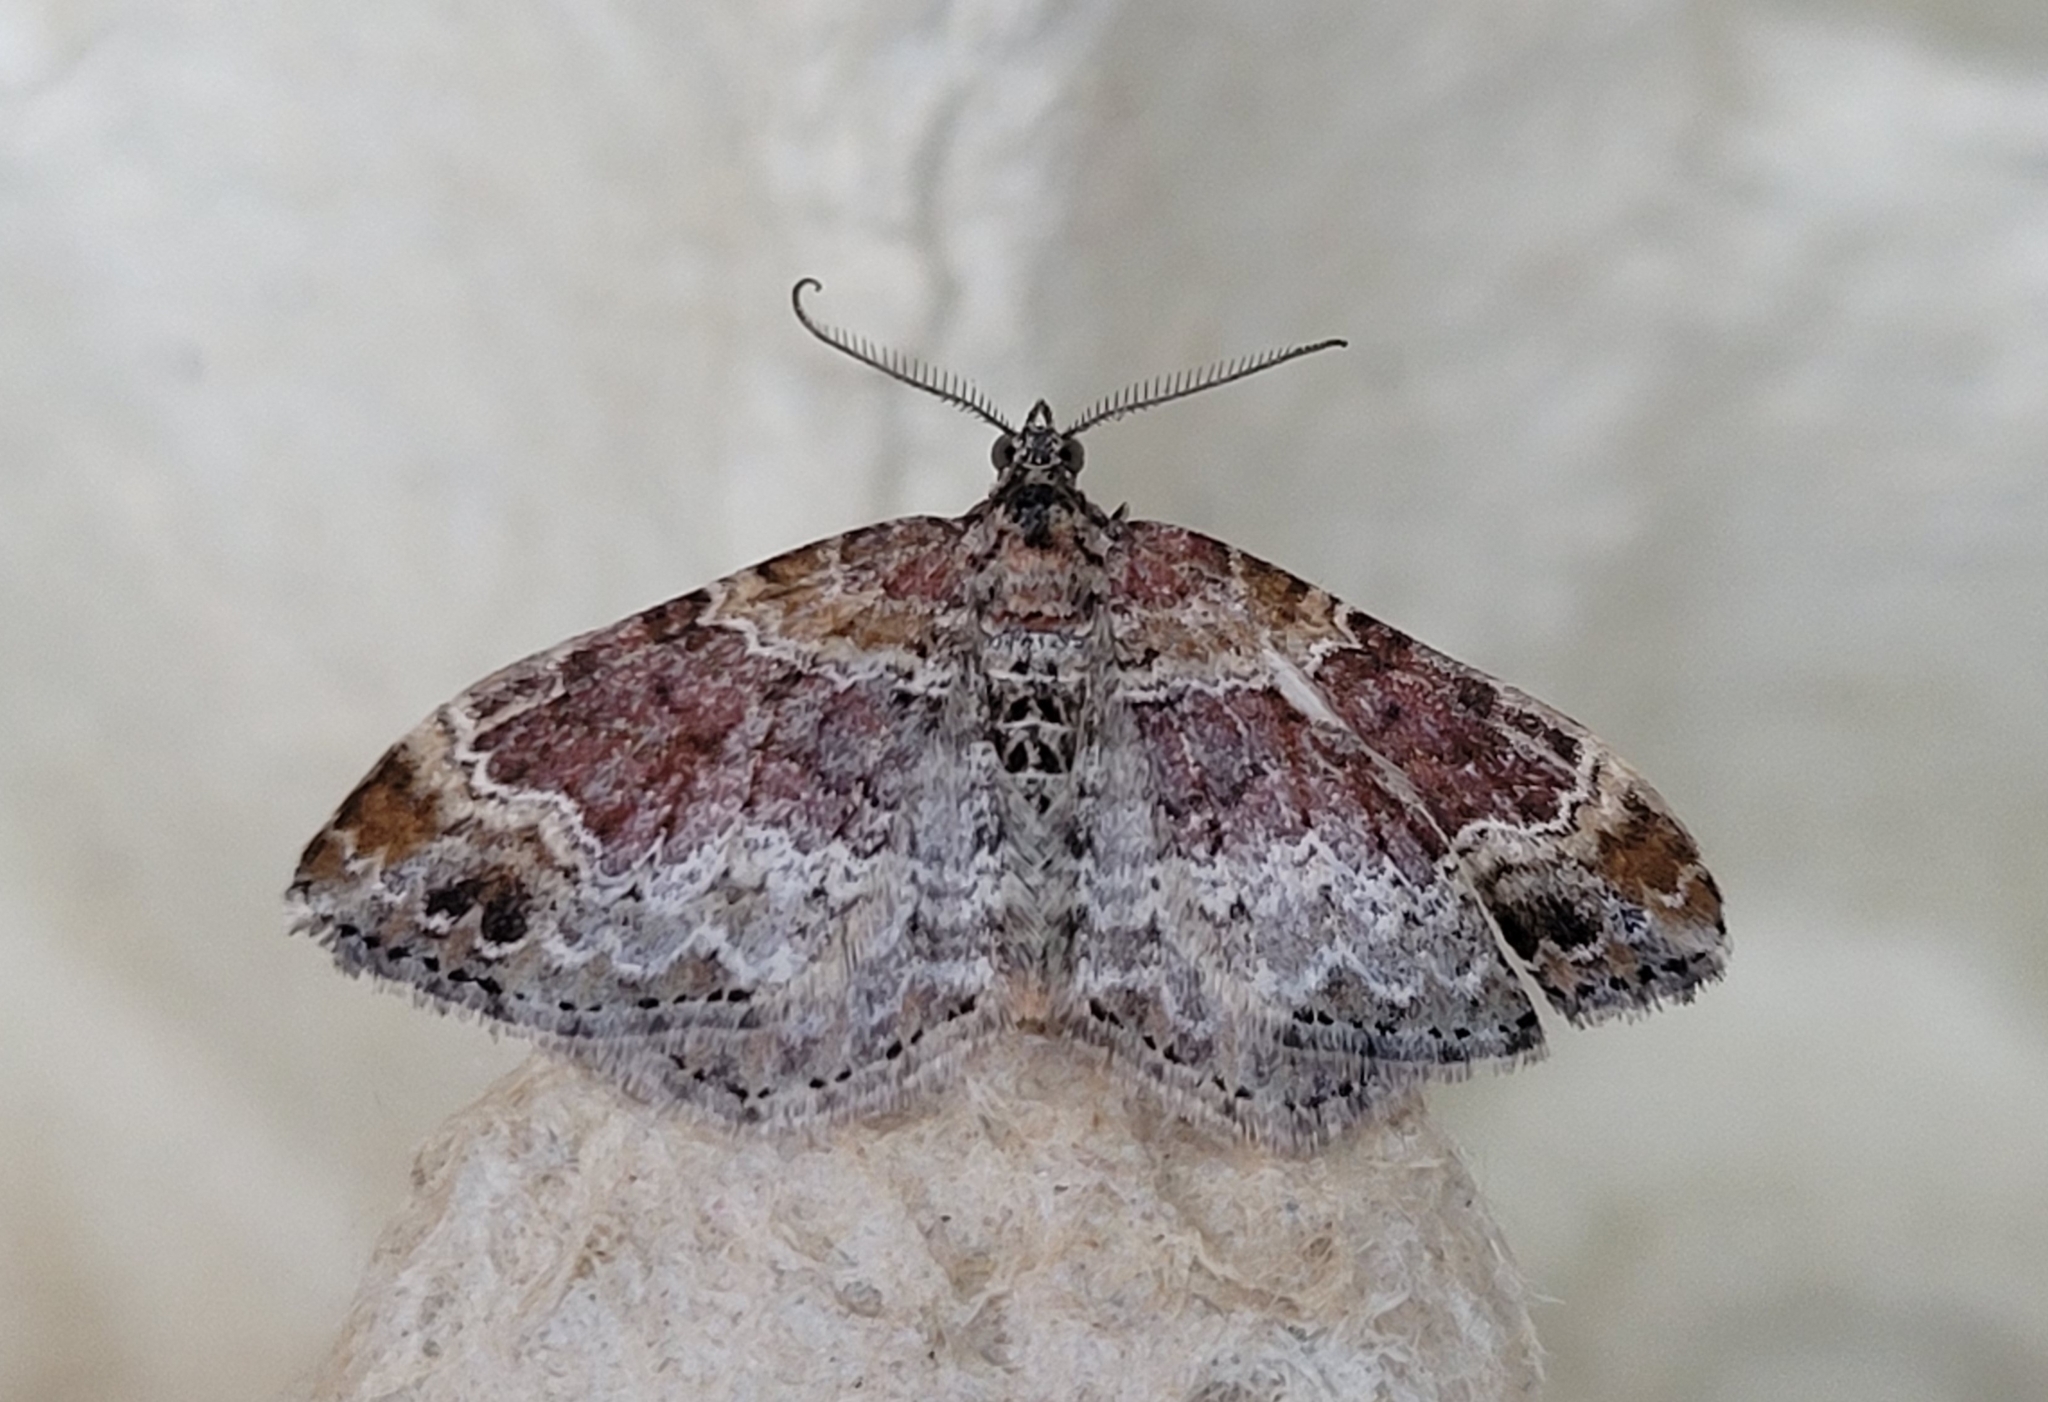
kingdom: Animalia
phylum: Arthropoda
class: Insecta
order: Lepidoptera
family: Geometridae
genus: Xanthorhoe
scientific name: Xanthorhoe spadicearia
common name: Red twin-spot carpet
